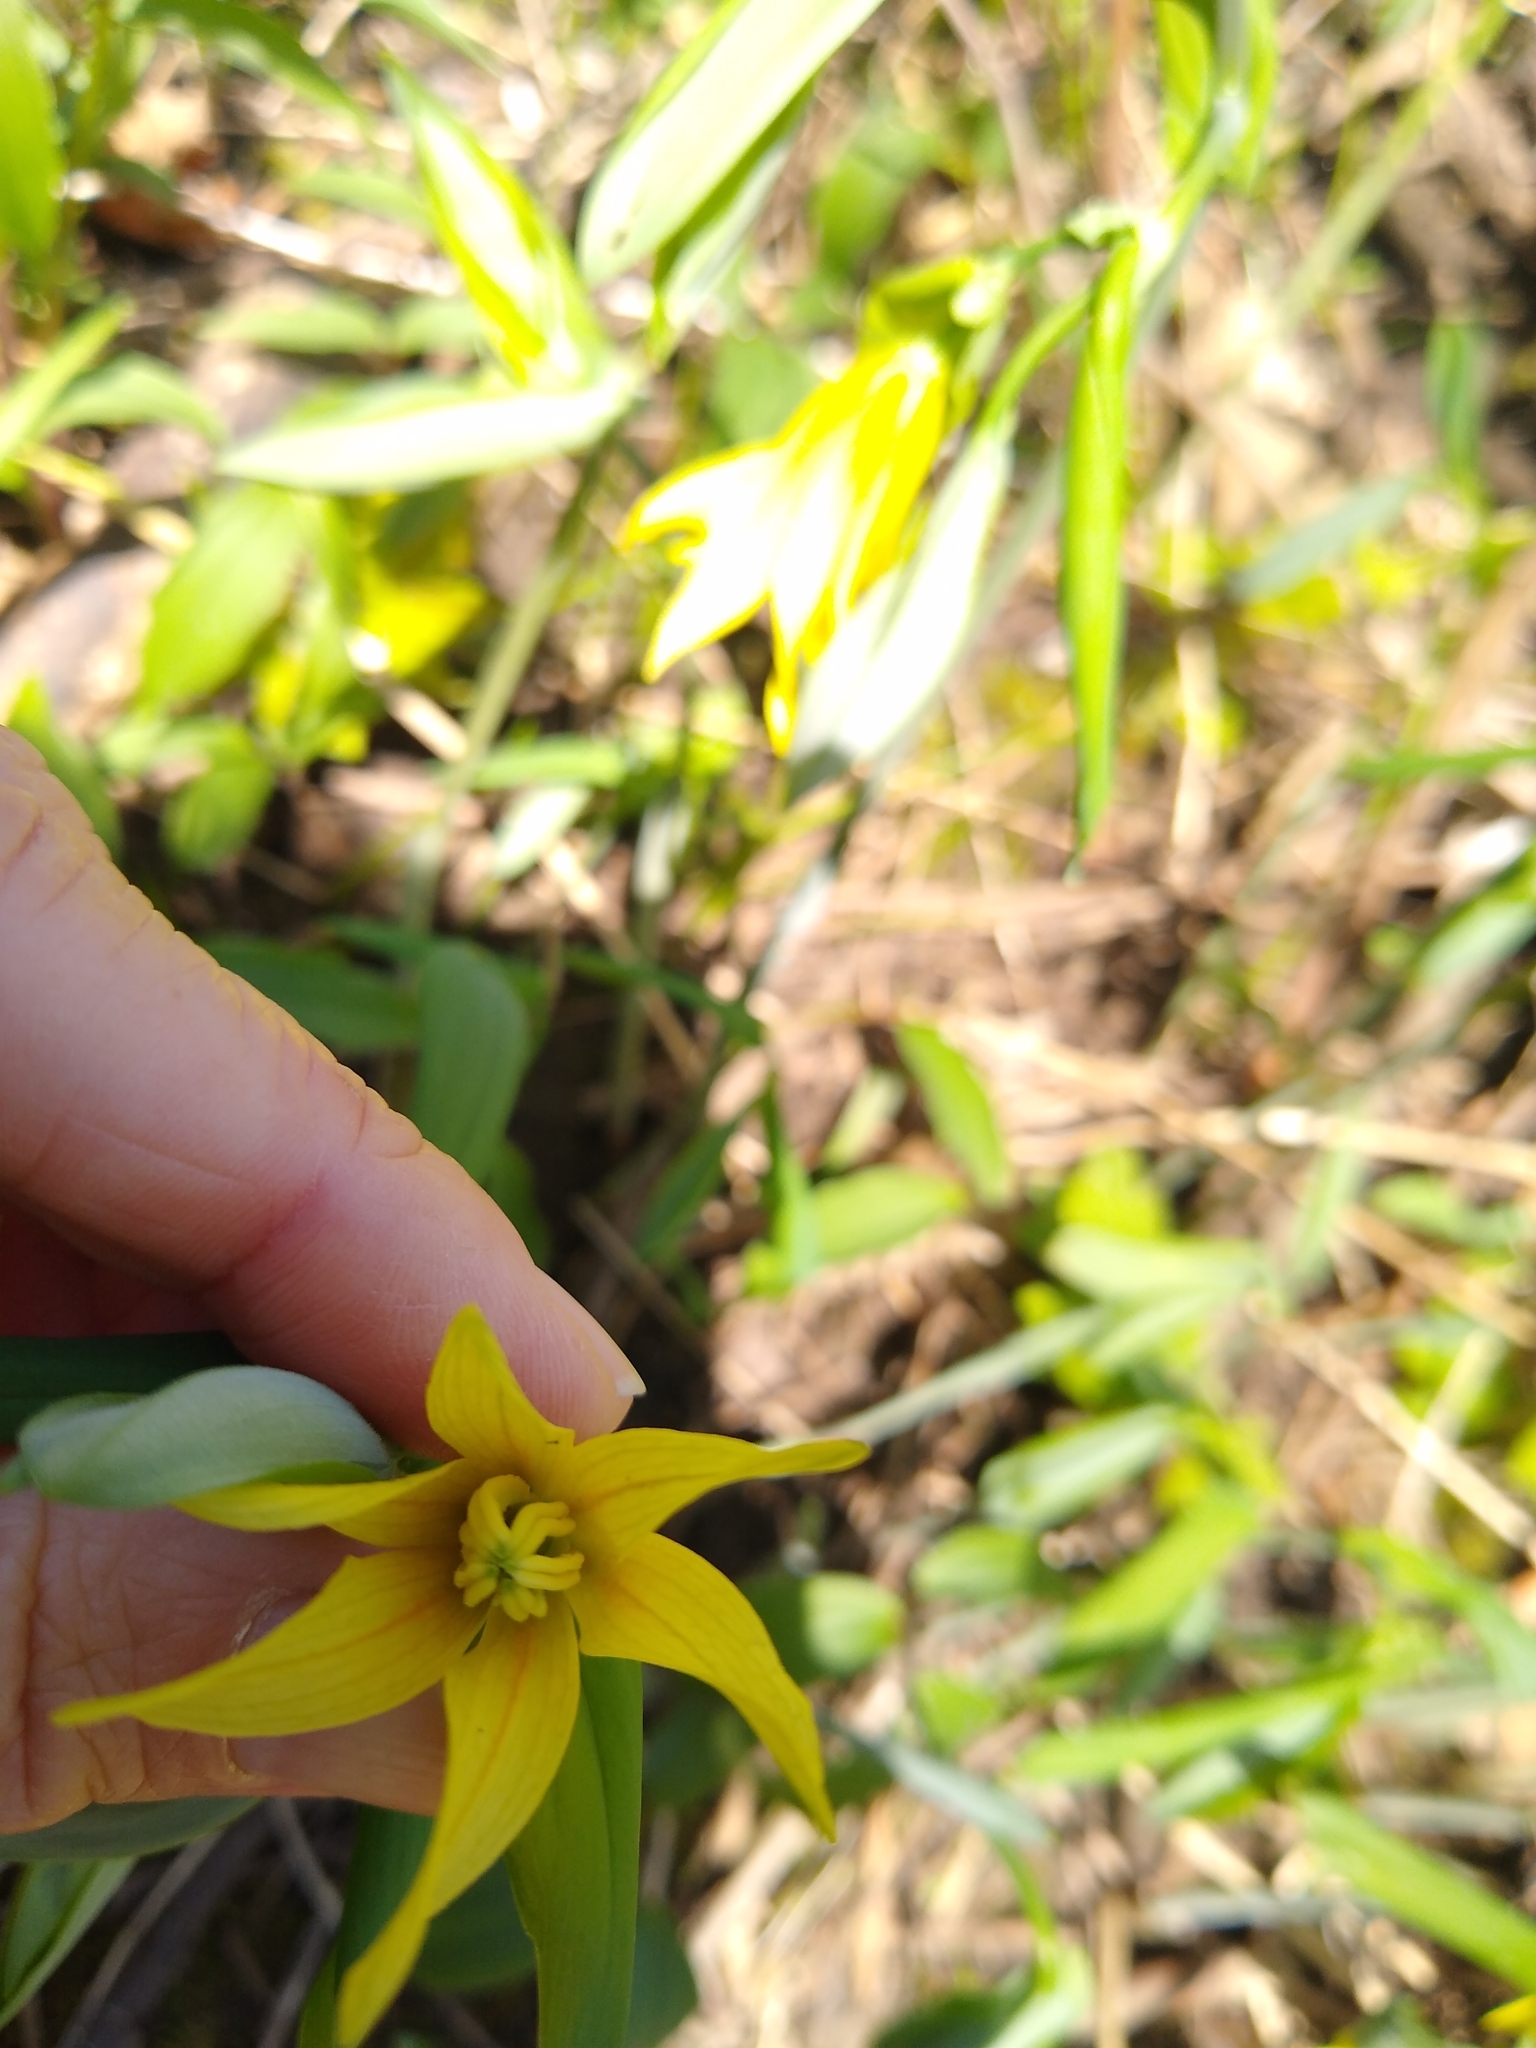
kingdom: Plantae
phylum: Tracheophyta
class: Liliopsida
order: Liliales
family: Colchicaceae
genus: Uvularia
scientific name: Uvularia grandiflora
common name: Bellwort
